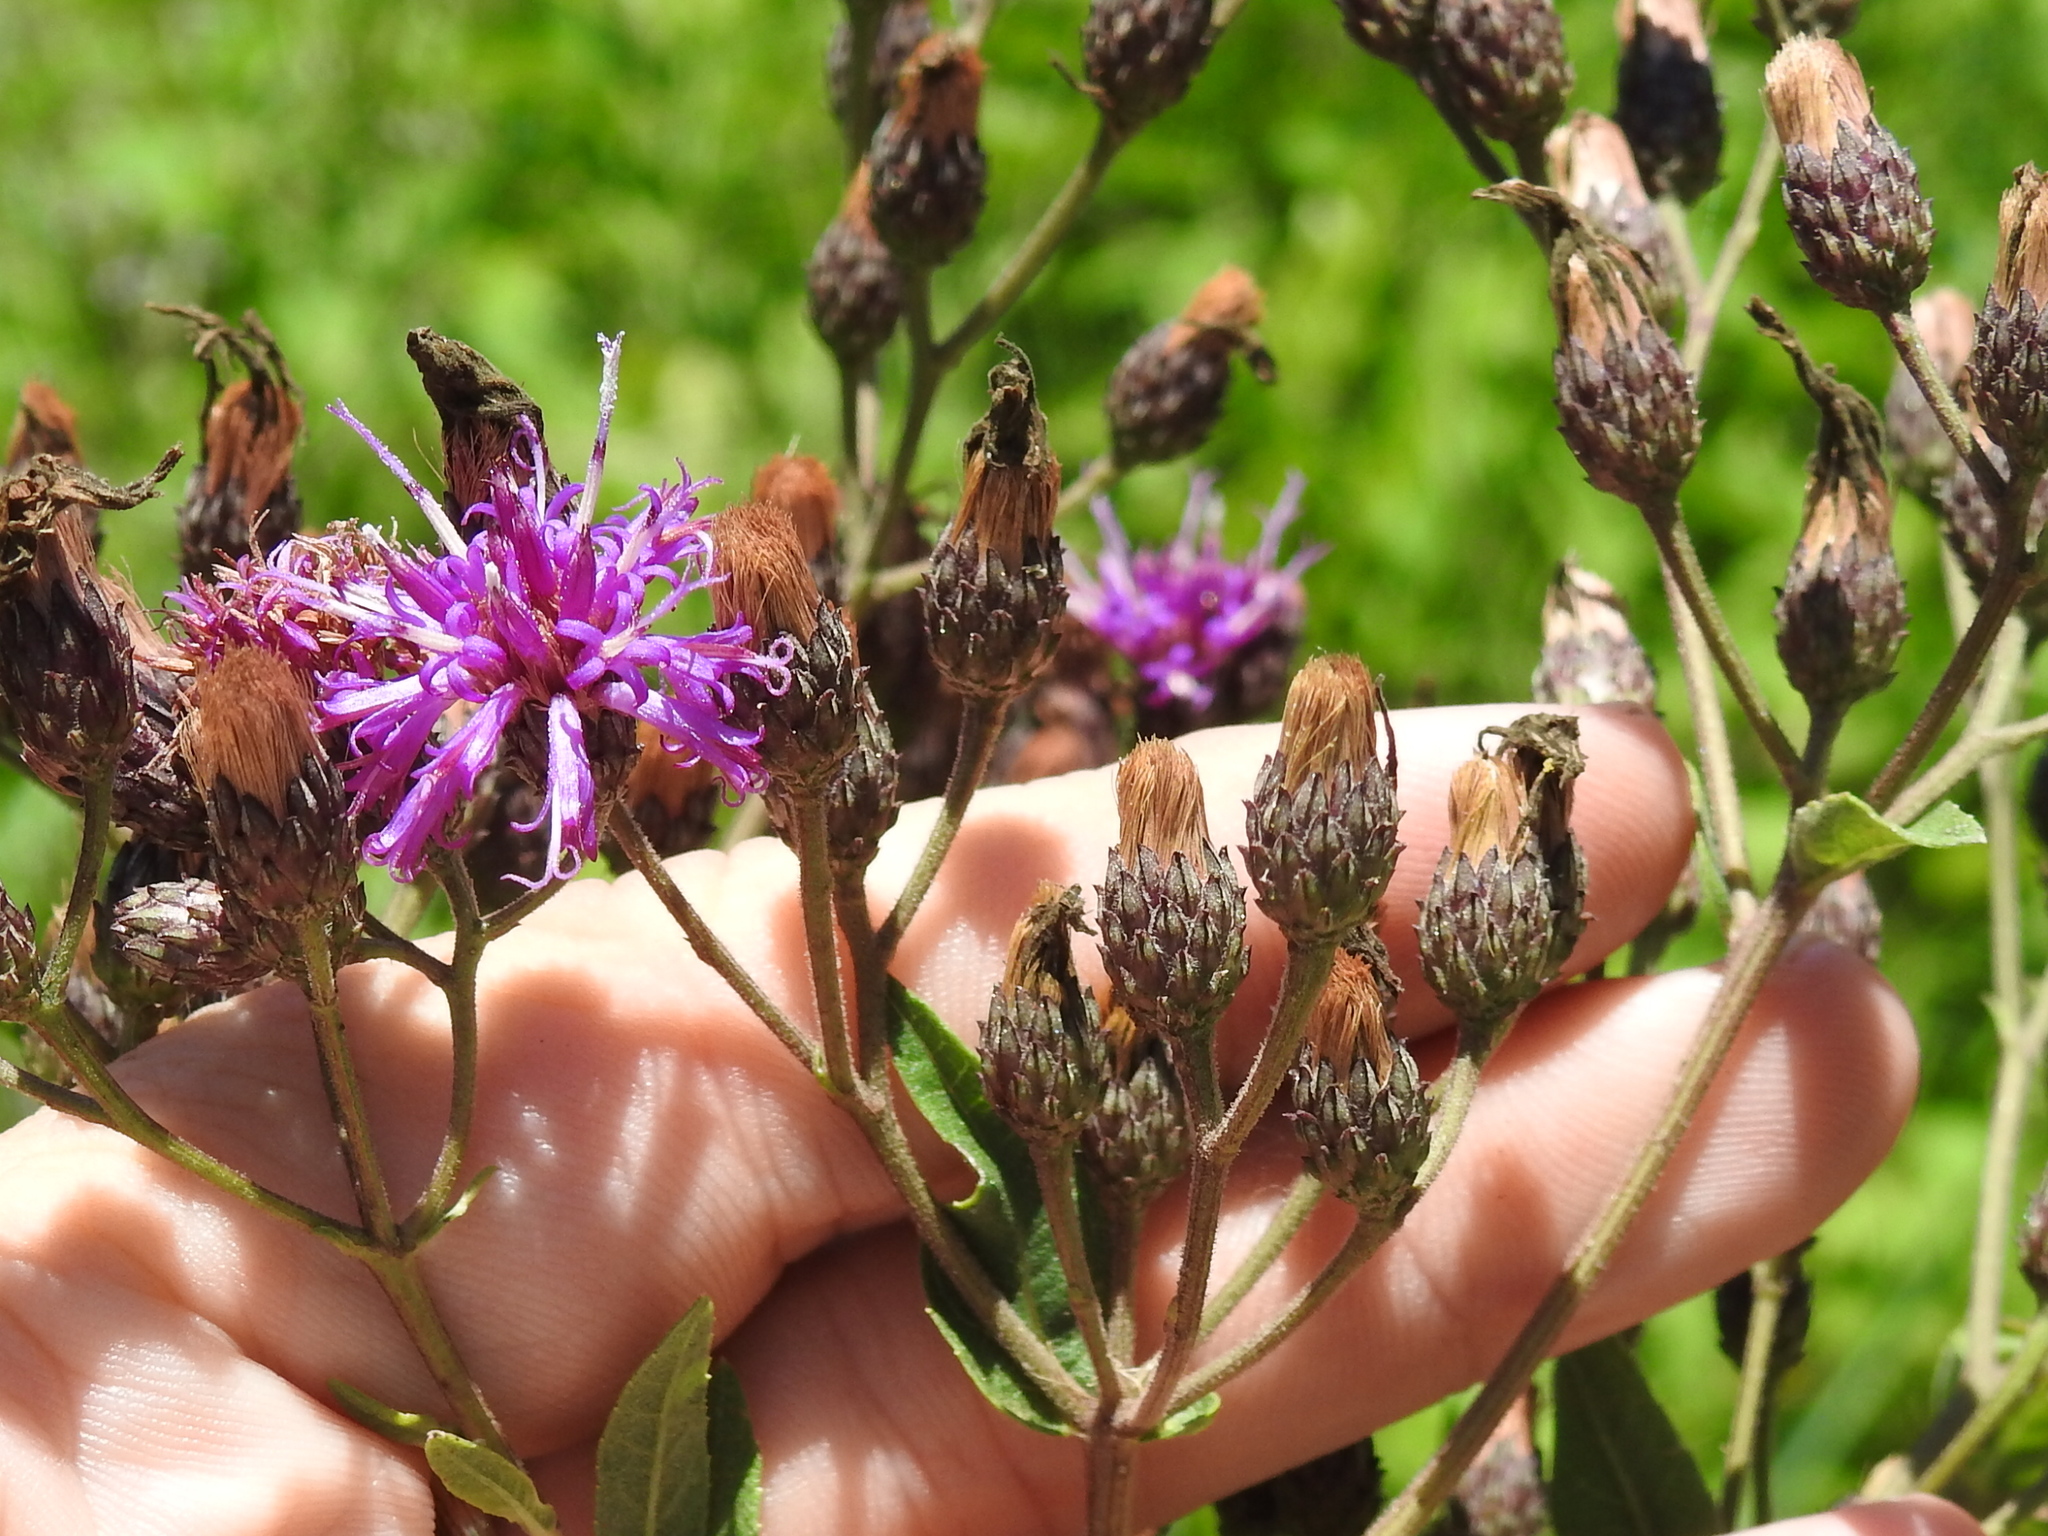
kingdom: Plantae
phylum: Tracheophyta
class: Magnoliopsida
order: Asterales
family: Asteraceae
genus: Vernonia
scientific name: Vernonia baldwinii
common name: Western ironweed
